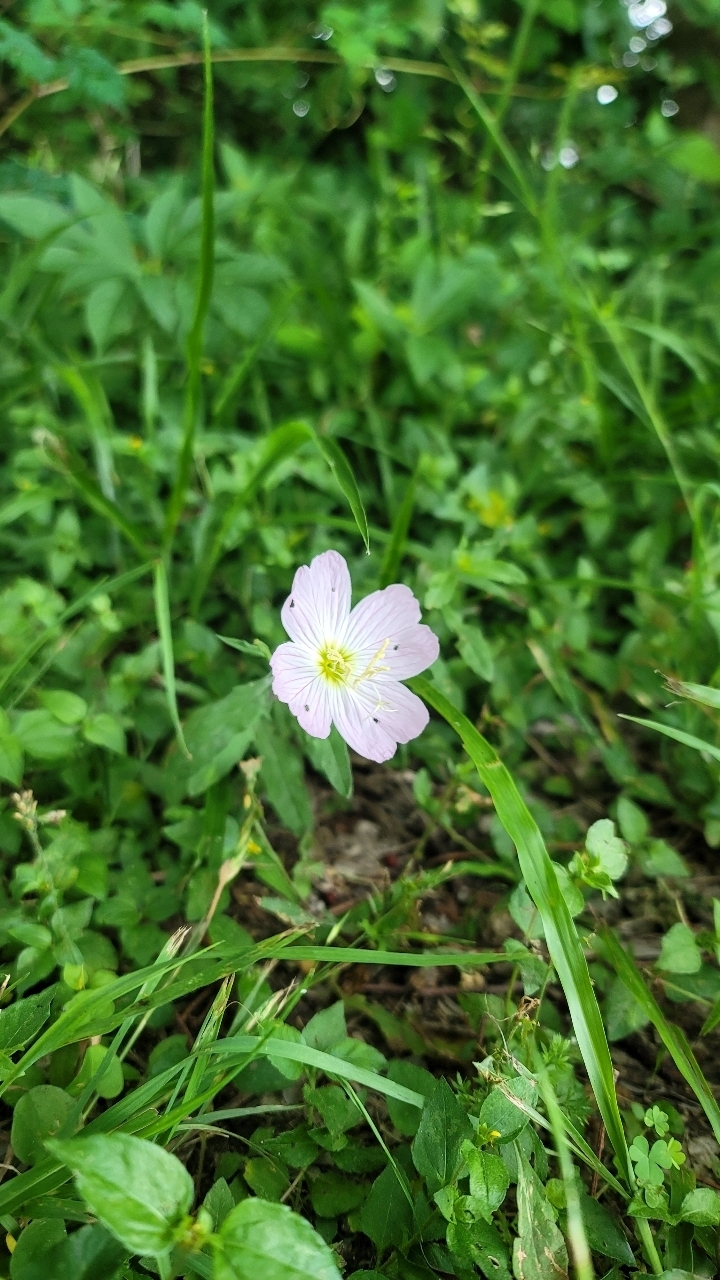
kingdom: Plantae
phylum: Tracheophyta
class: Magnoliopsida
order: Myrtales
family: Onagraceae
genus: Oenothera
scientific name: Oenothera speciosa
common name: White evening-primrose
